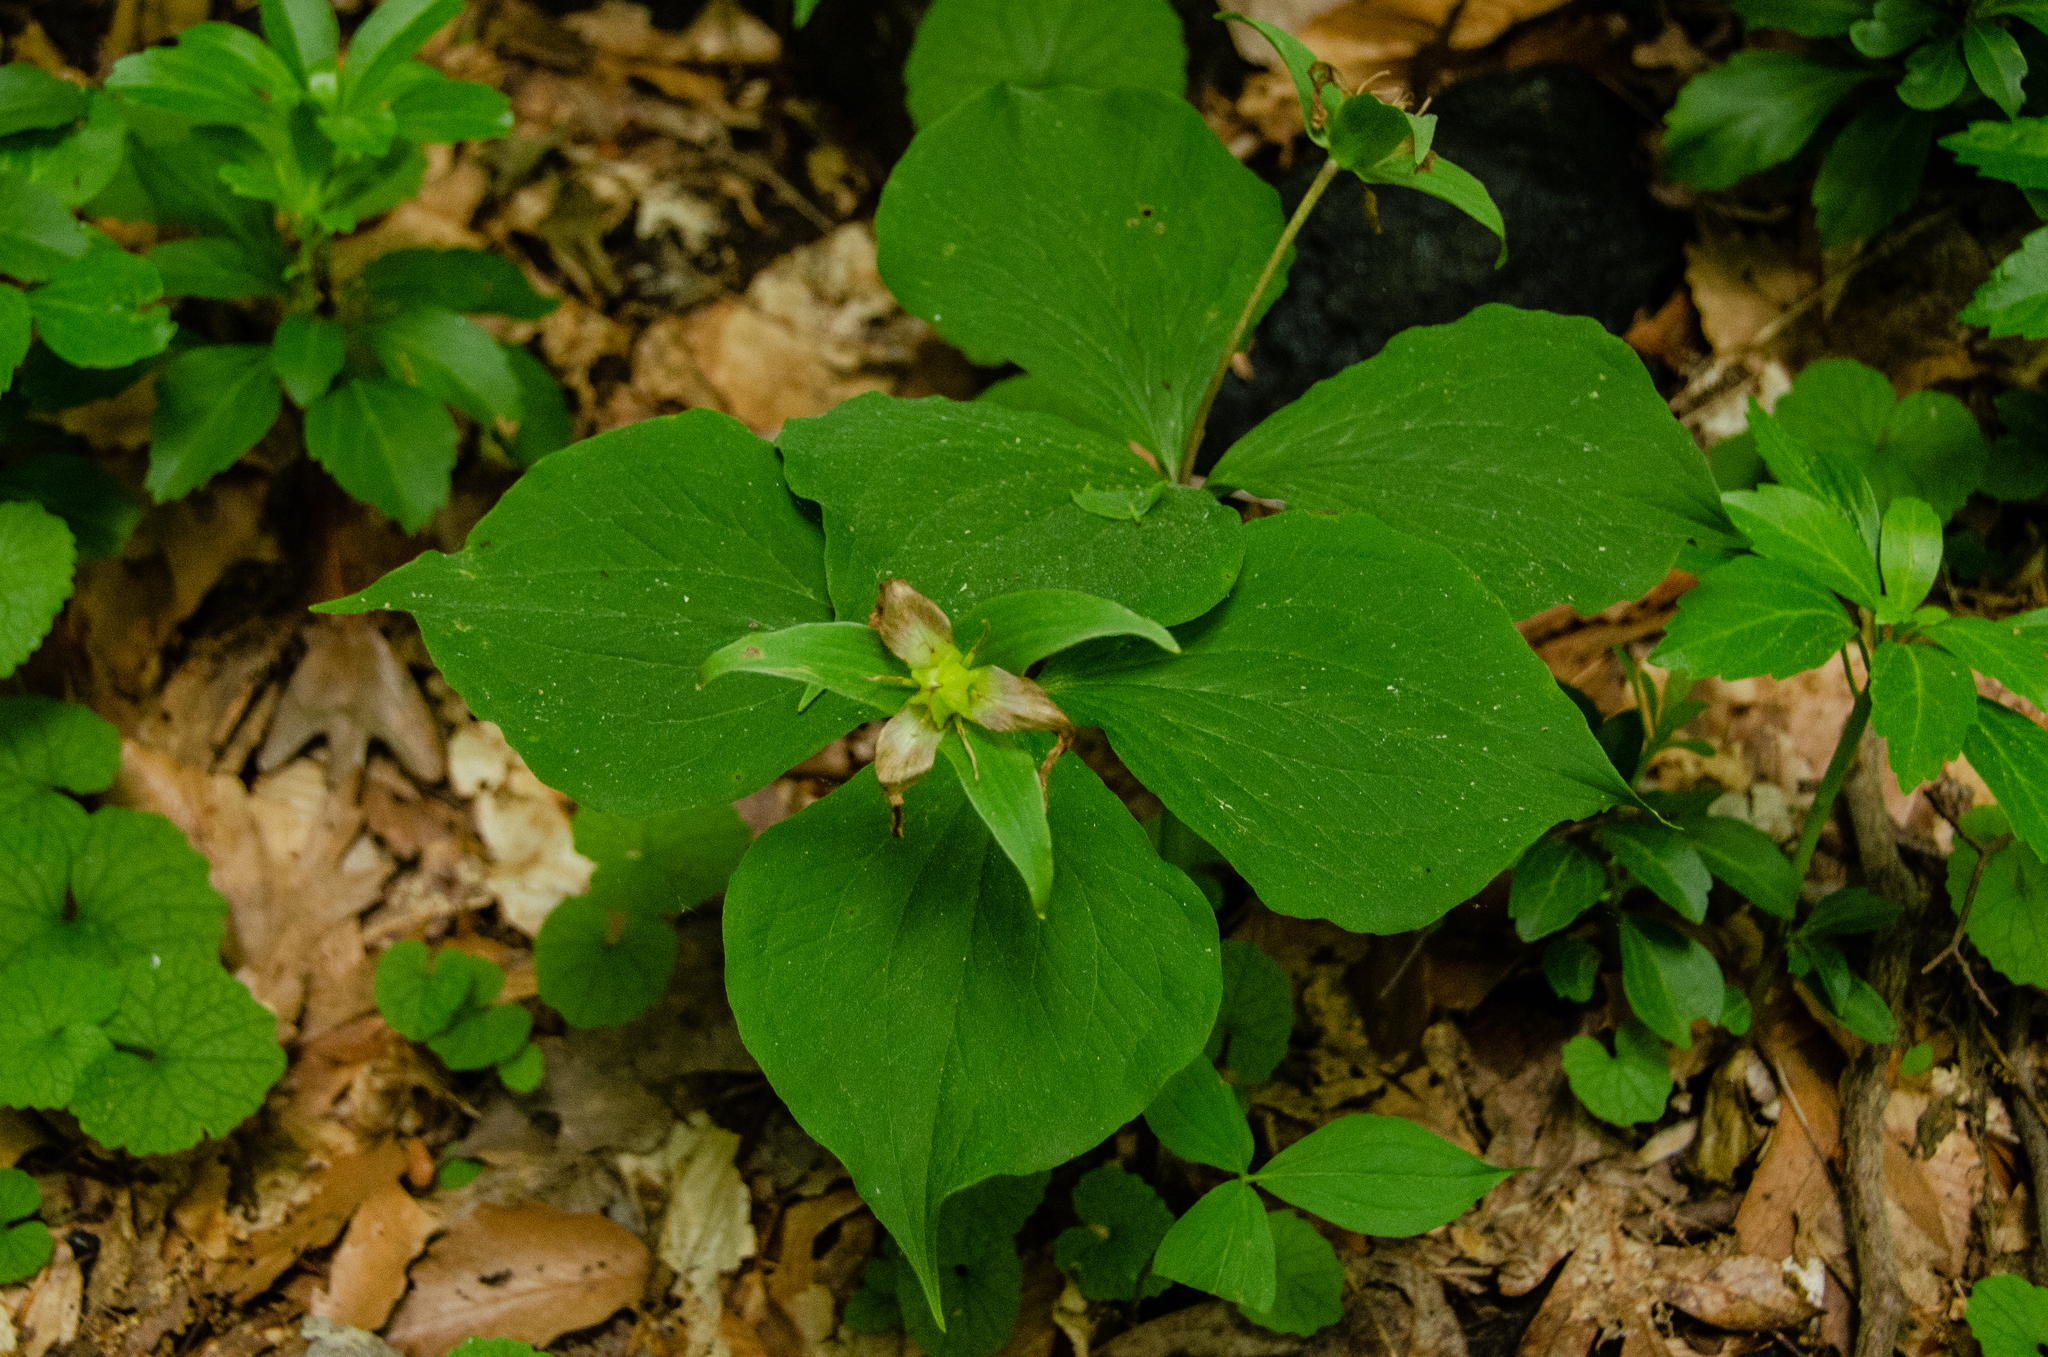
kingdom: Plantae
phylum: Tracheophyta
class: Liliopsida
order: Liliales
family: Melanthiaceae
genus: Trillium
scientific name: Trillium grandiflorum
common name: Great white trillium
